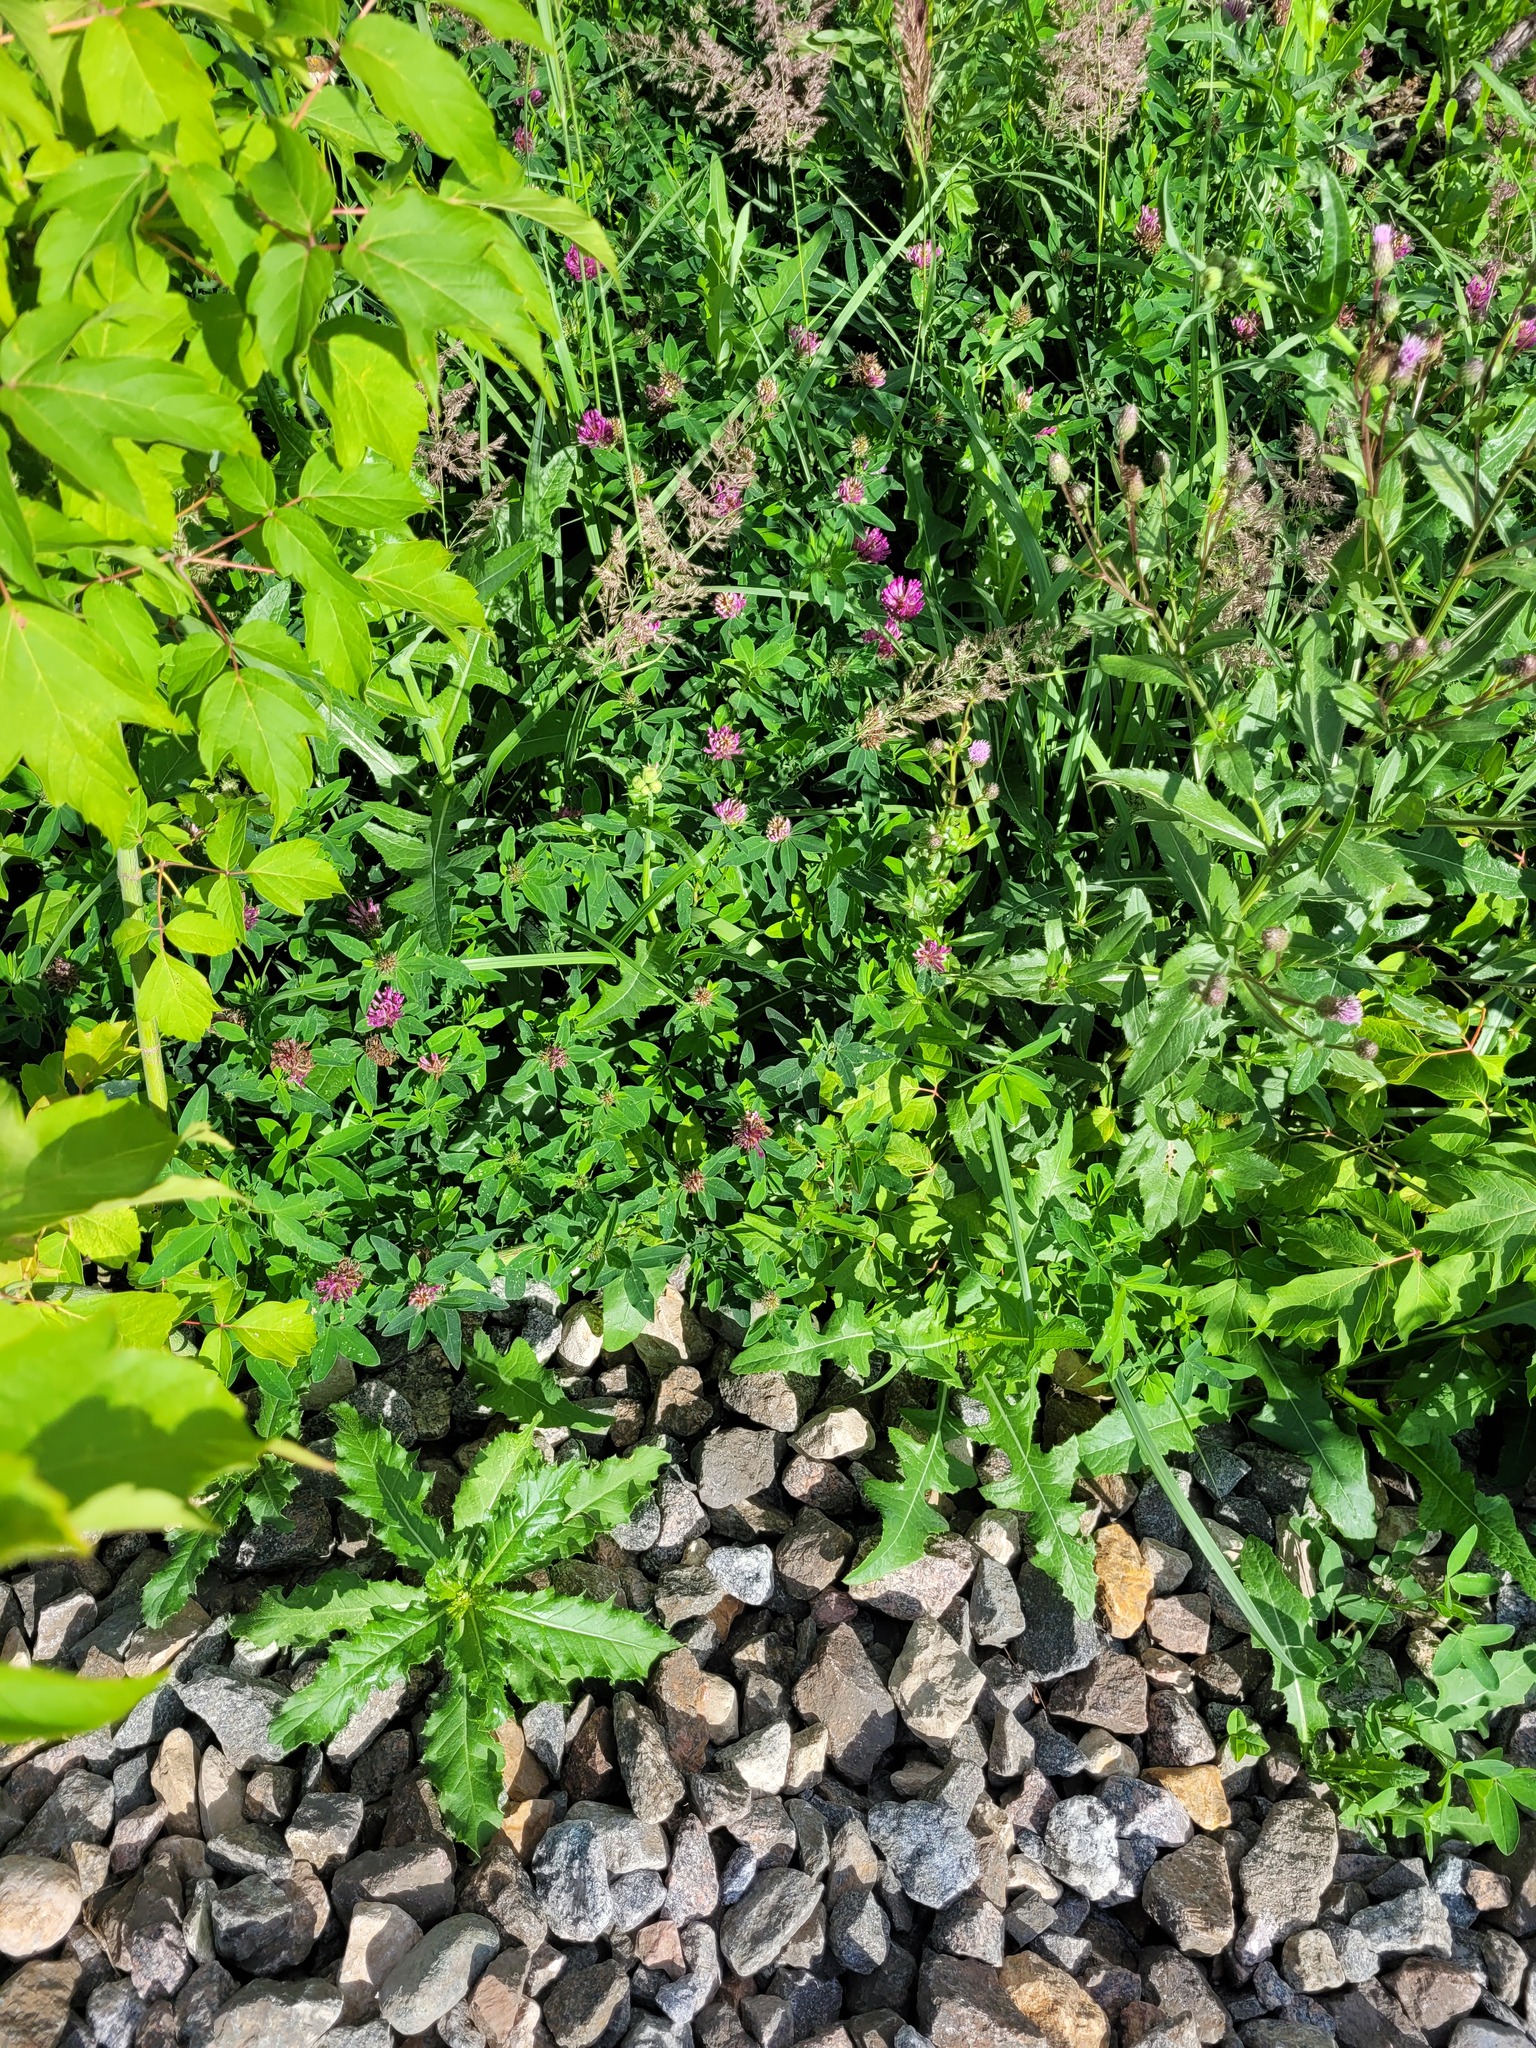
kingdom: Plantae
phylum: Tracheophyta
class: Magnoliopsida
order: Fabales
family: Fabaceae
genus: Trifolium
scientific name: Trifolium medium
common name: Zigzag clover
